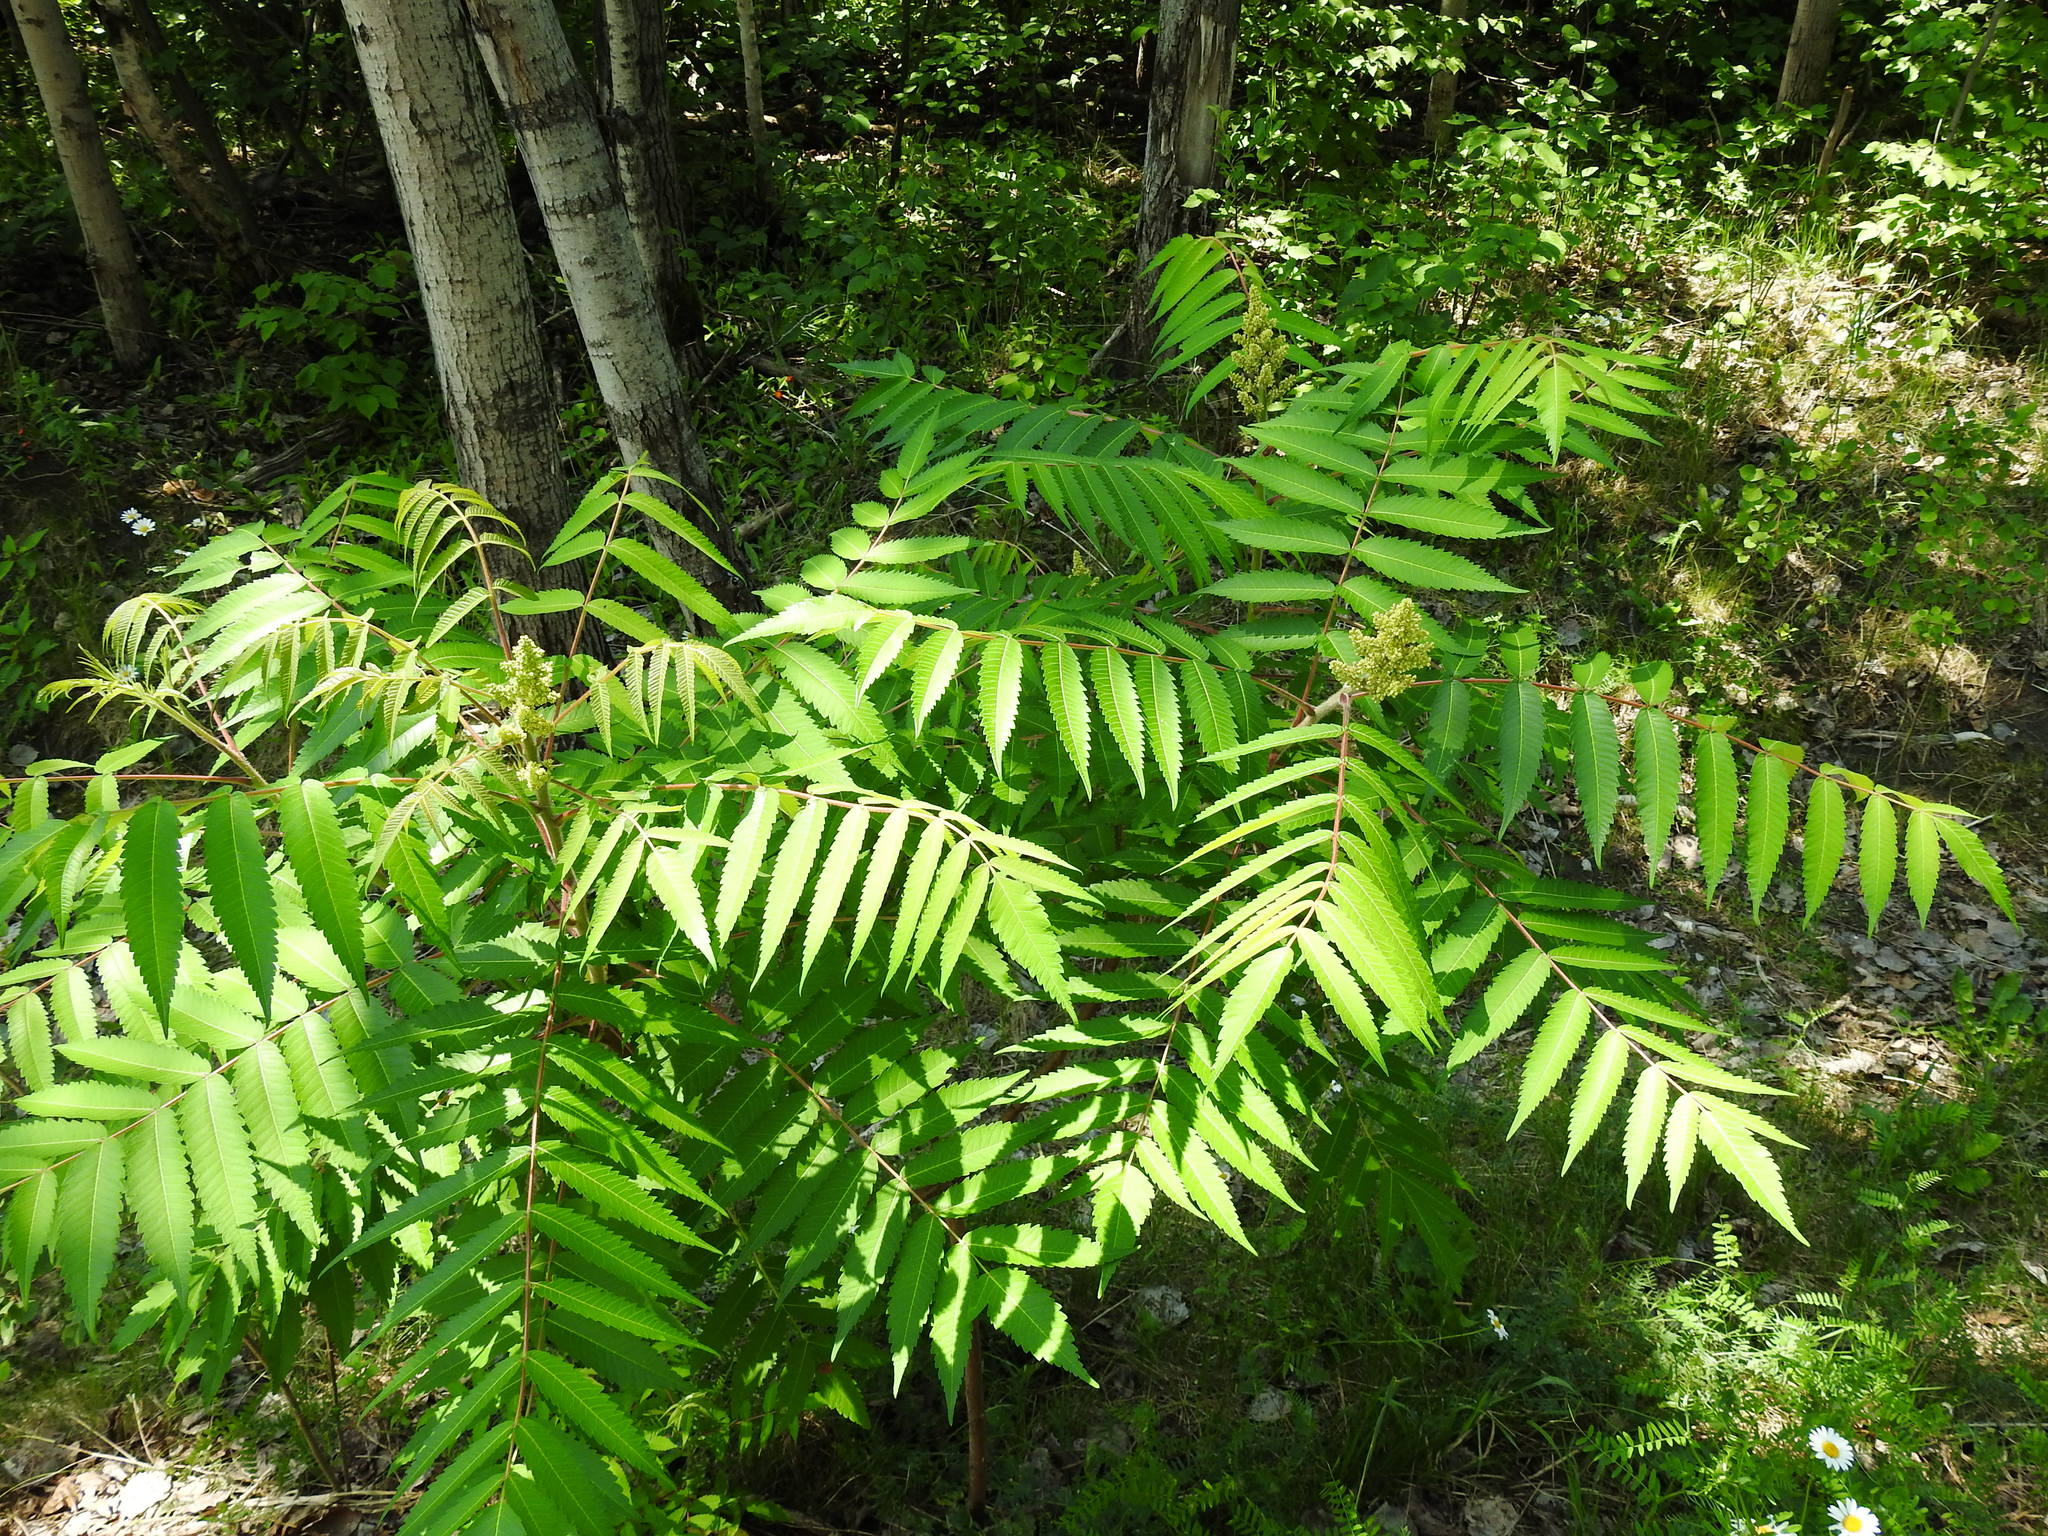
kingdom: Plantae
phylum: Tracheophyta
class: Magnoliopsida
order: Sapindales
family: Anacardiaceae
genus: Rhus
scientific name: Rhus typhina
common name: Staghorn sumac
